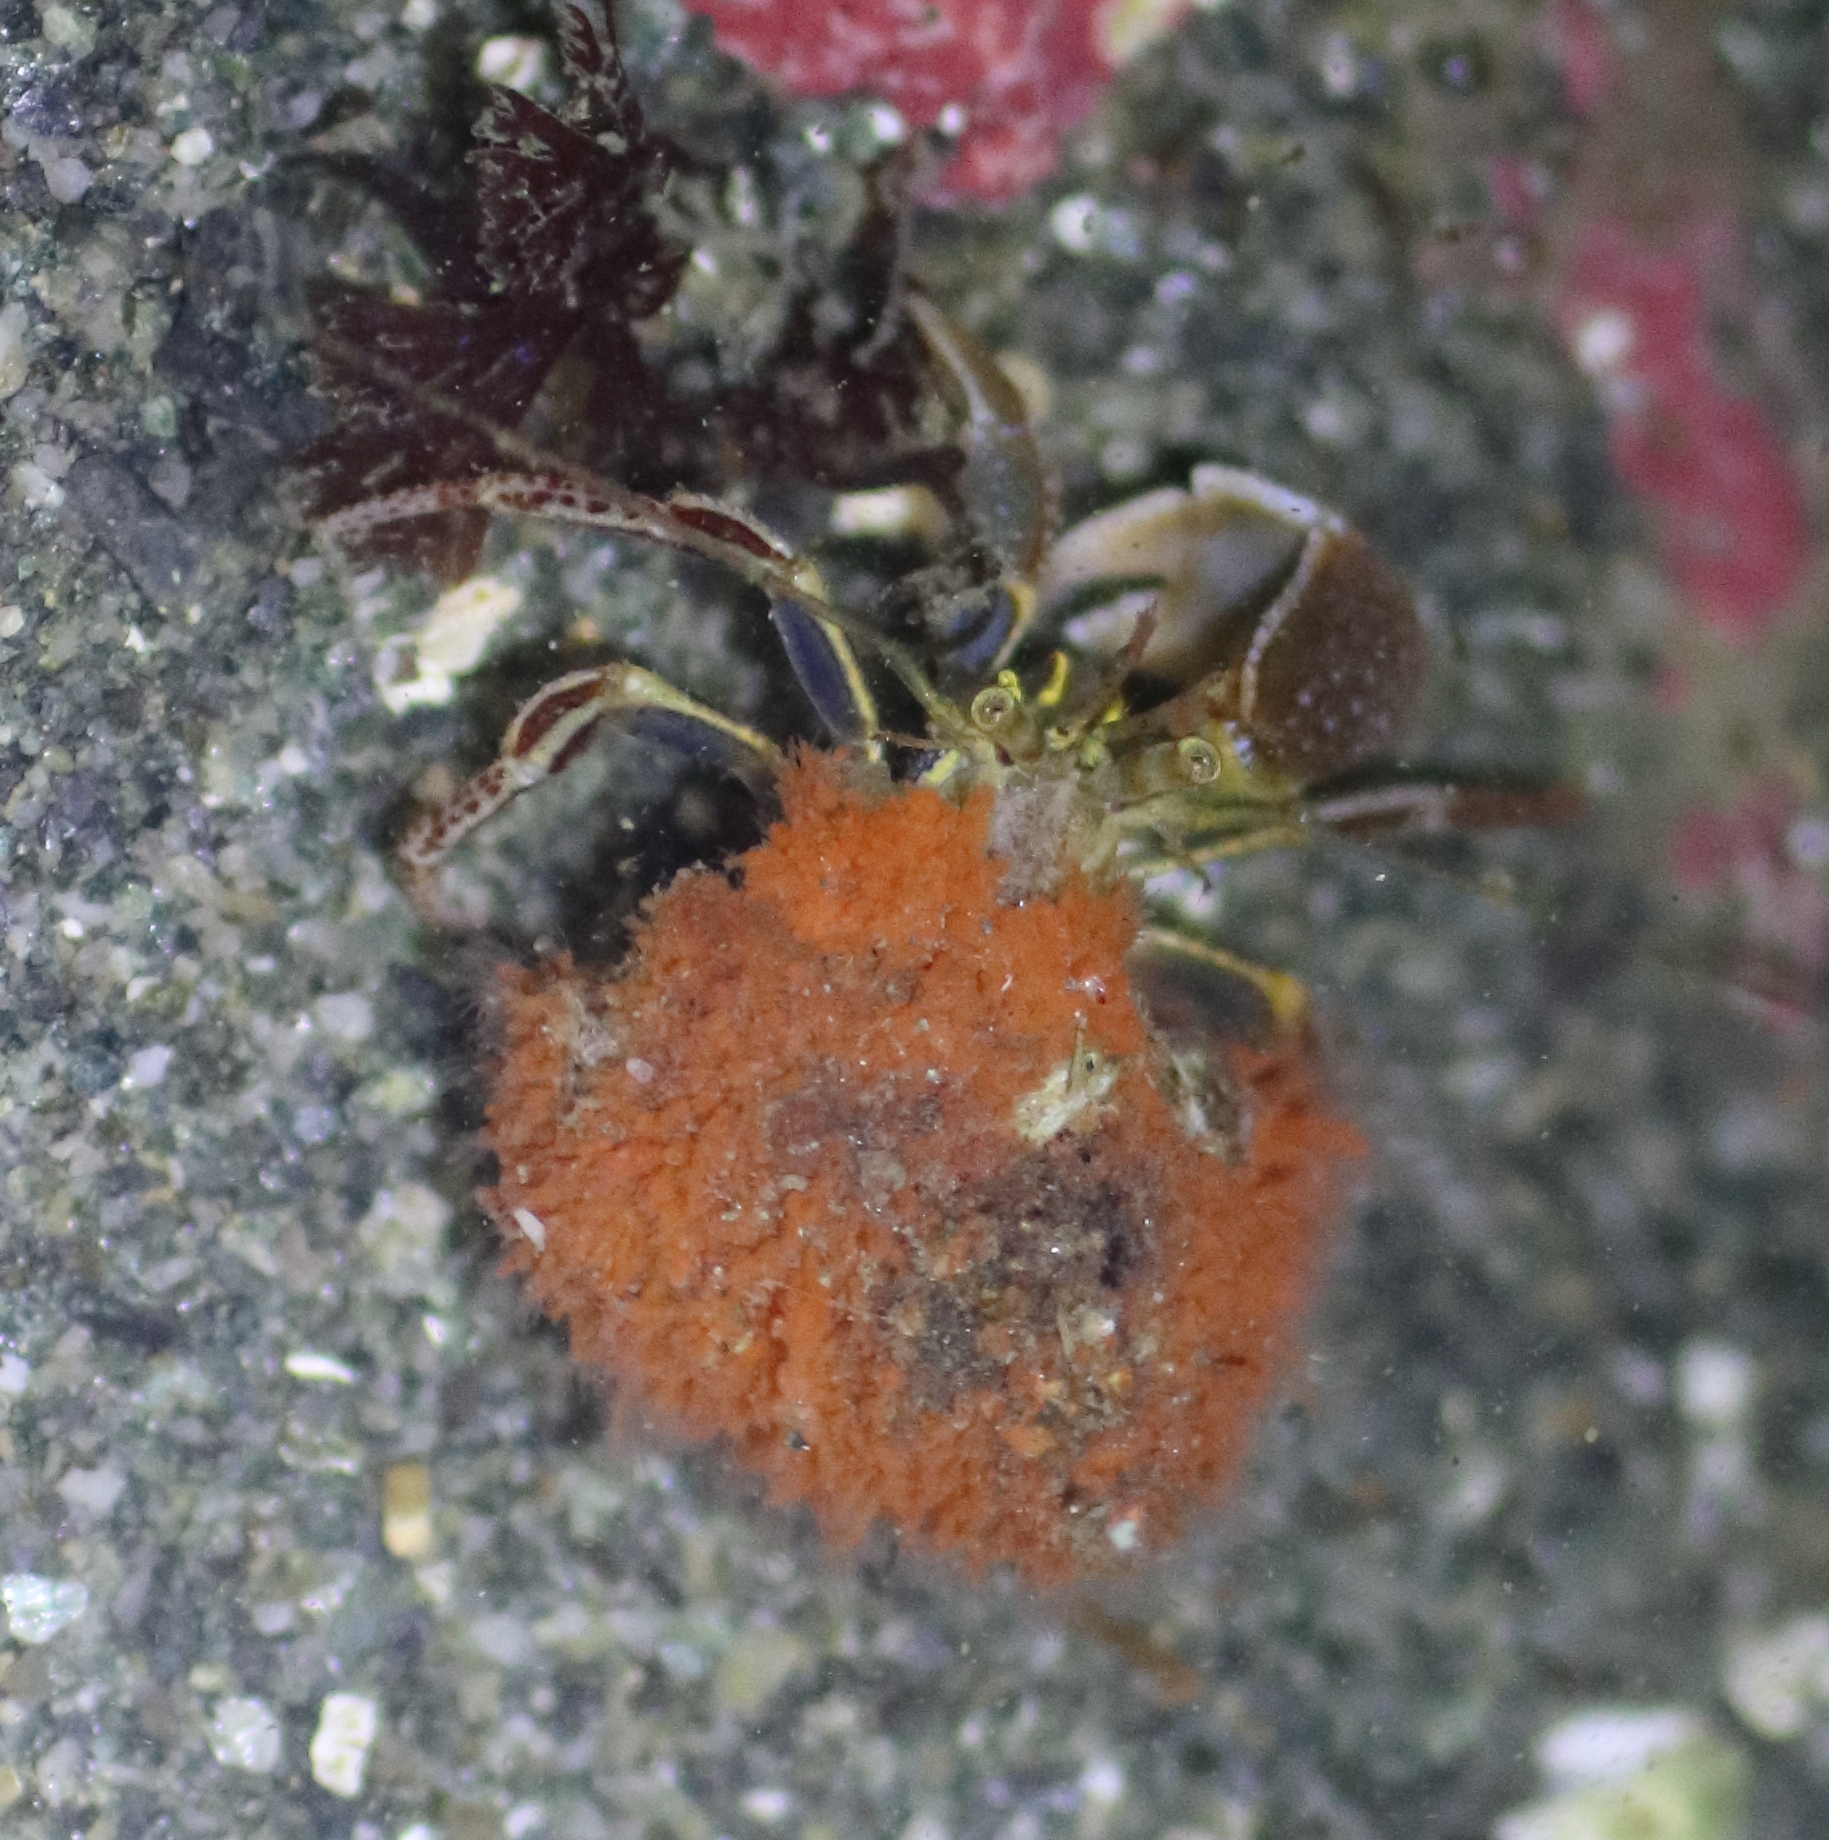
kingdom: Animalia
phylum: Arthropoda
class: Malacostraca
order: Decapoda
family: Paguridae
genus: Elassochirus
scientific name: Elassochirus tenuimanus
